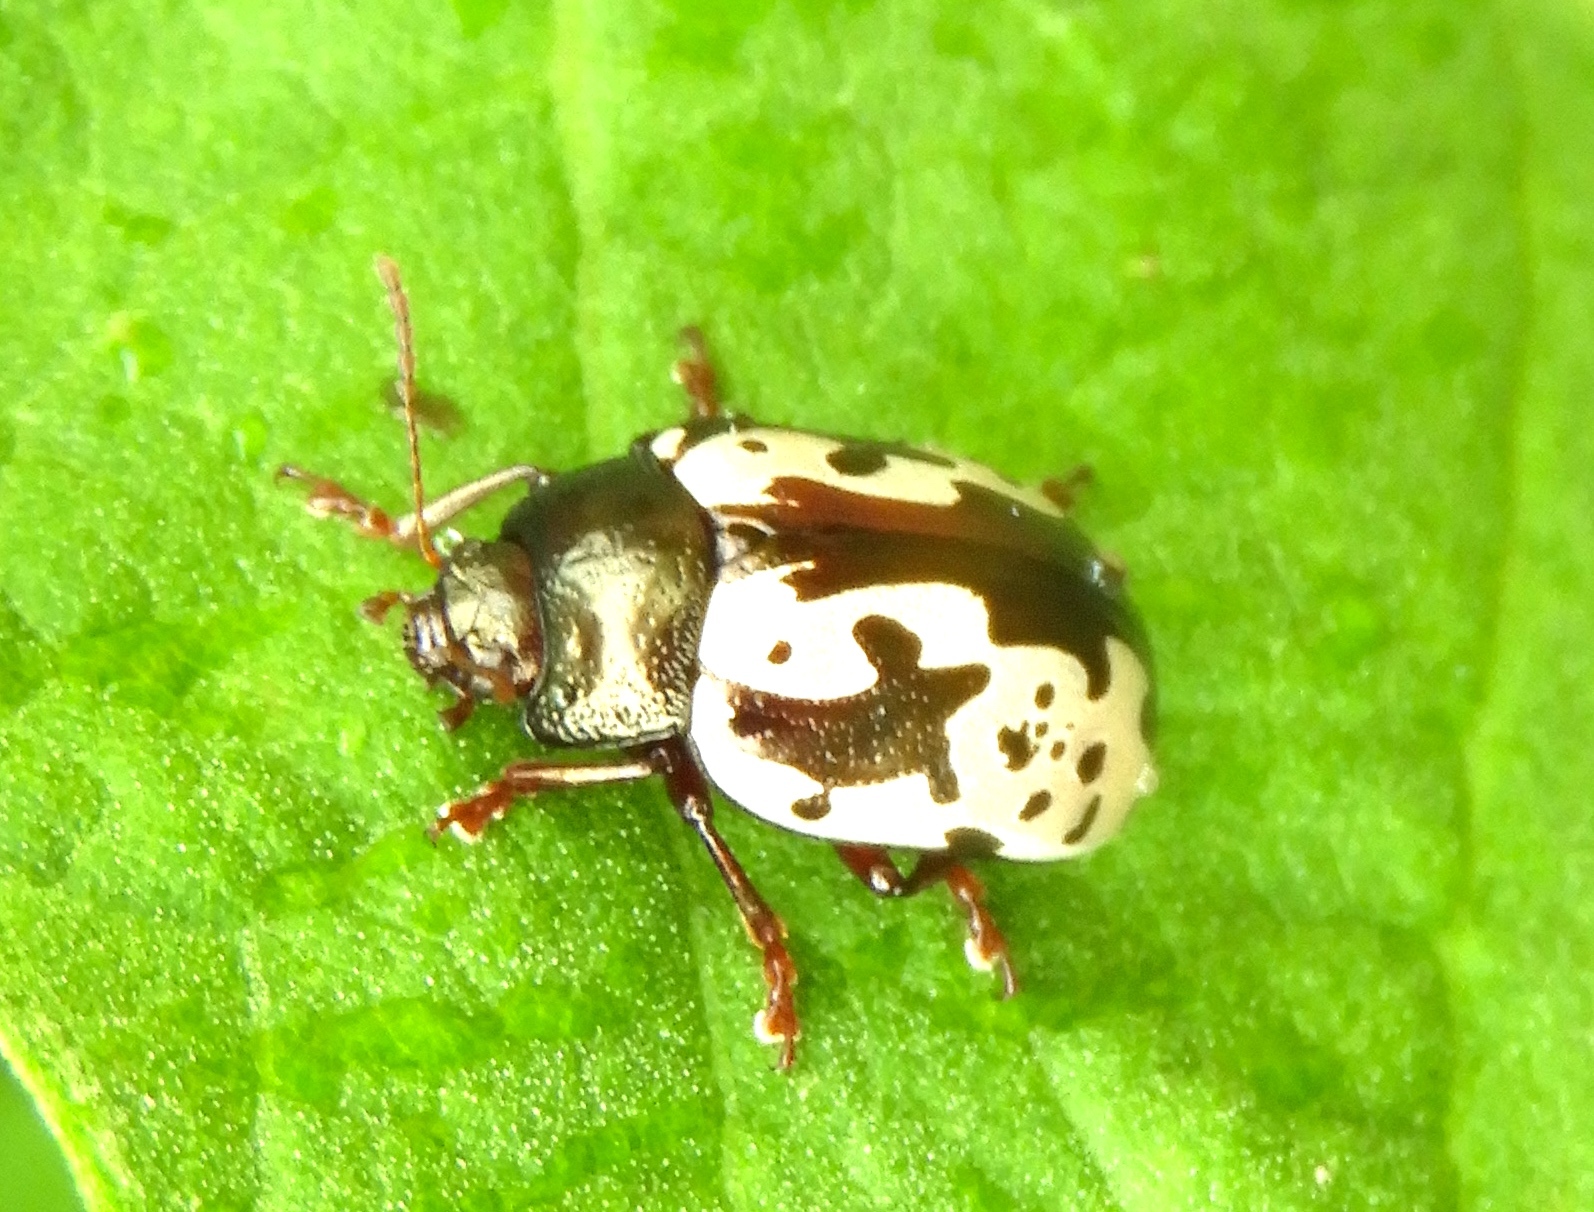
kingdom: Animalia
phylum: Arthropoda
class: Insecta
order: Coleoptera
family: Chrysomelidae
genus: Calligrapha
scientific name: Calligrapha intermedia
